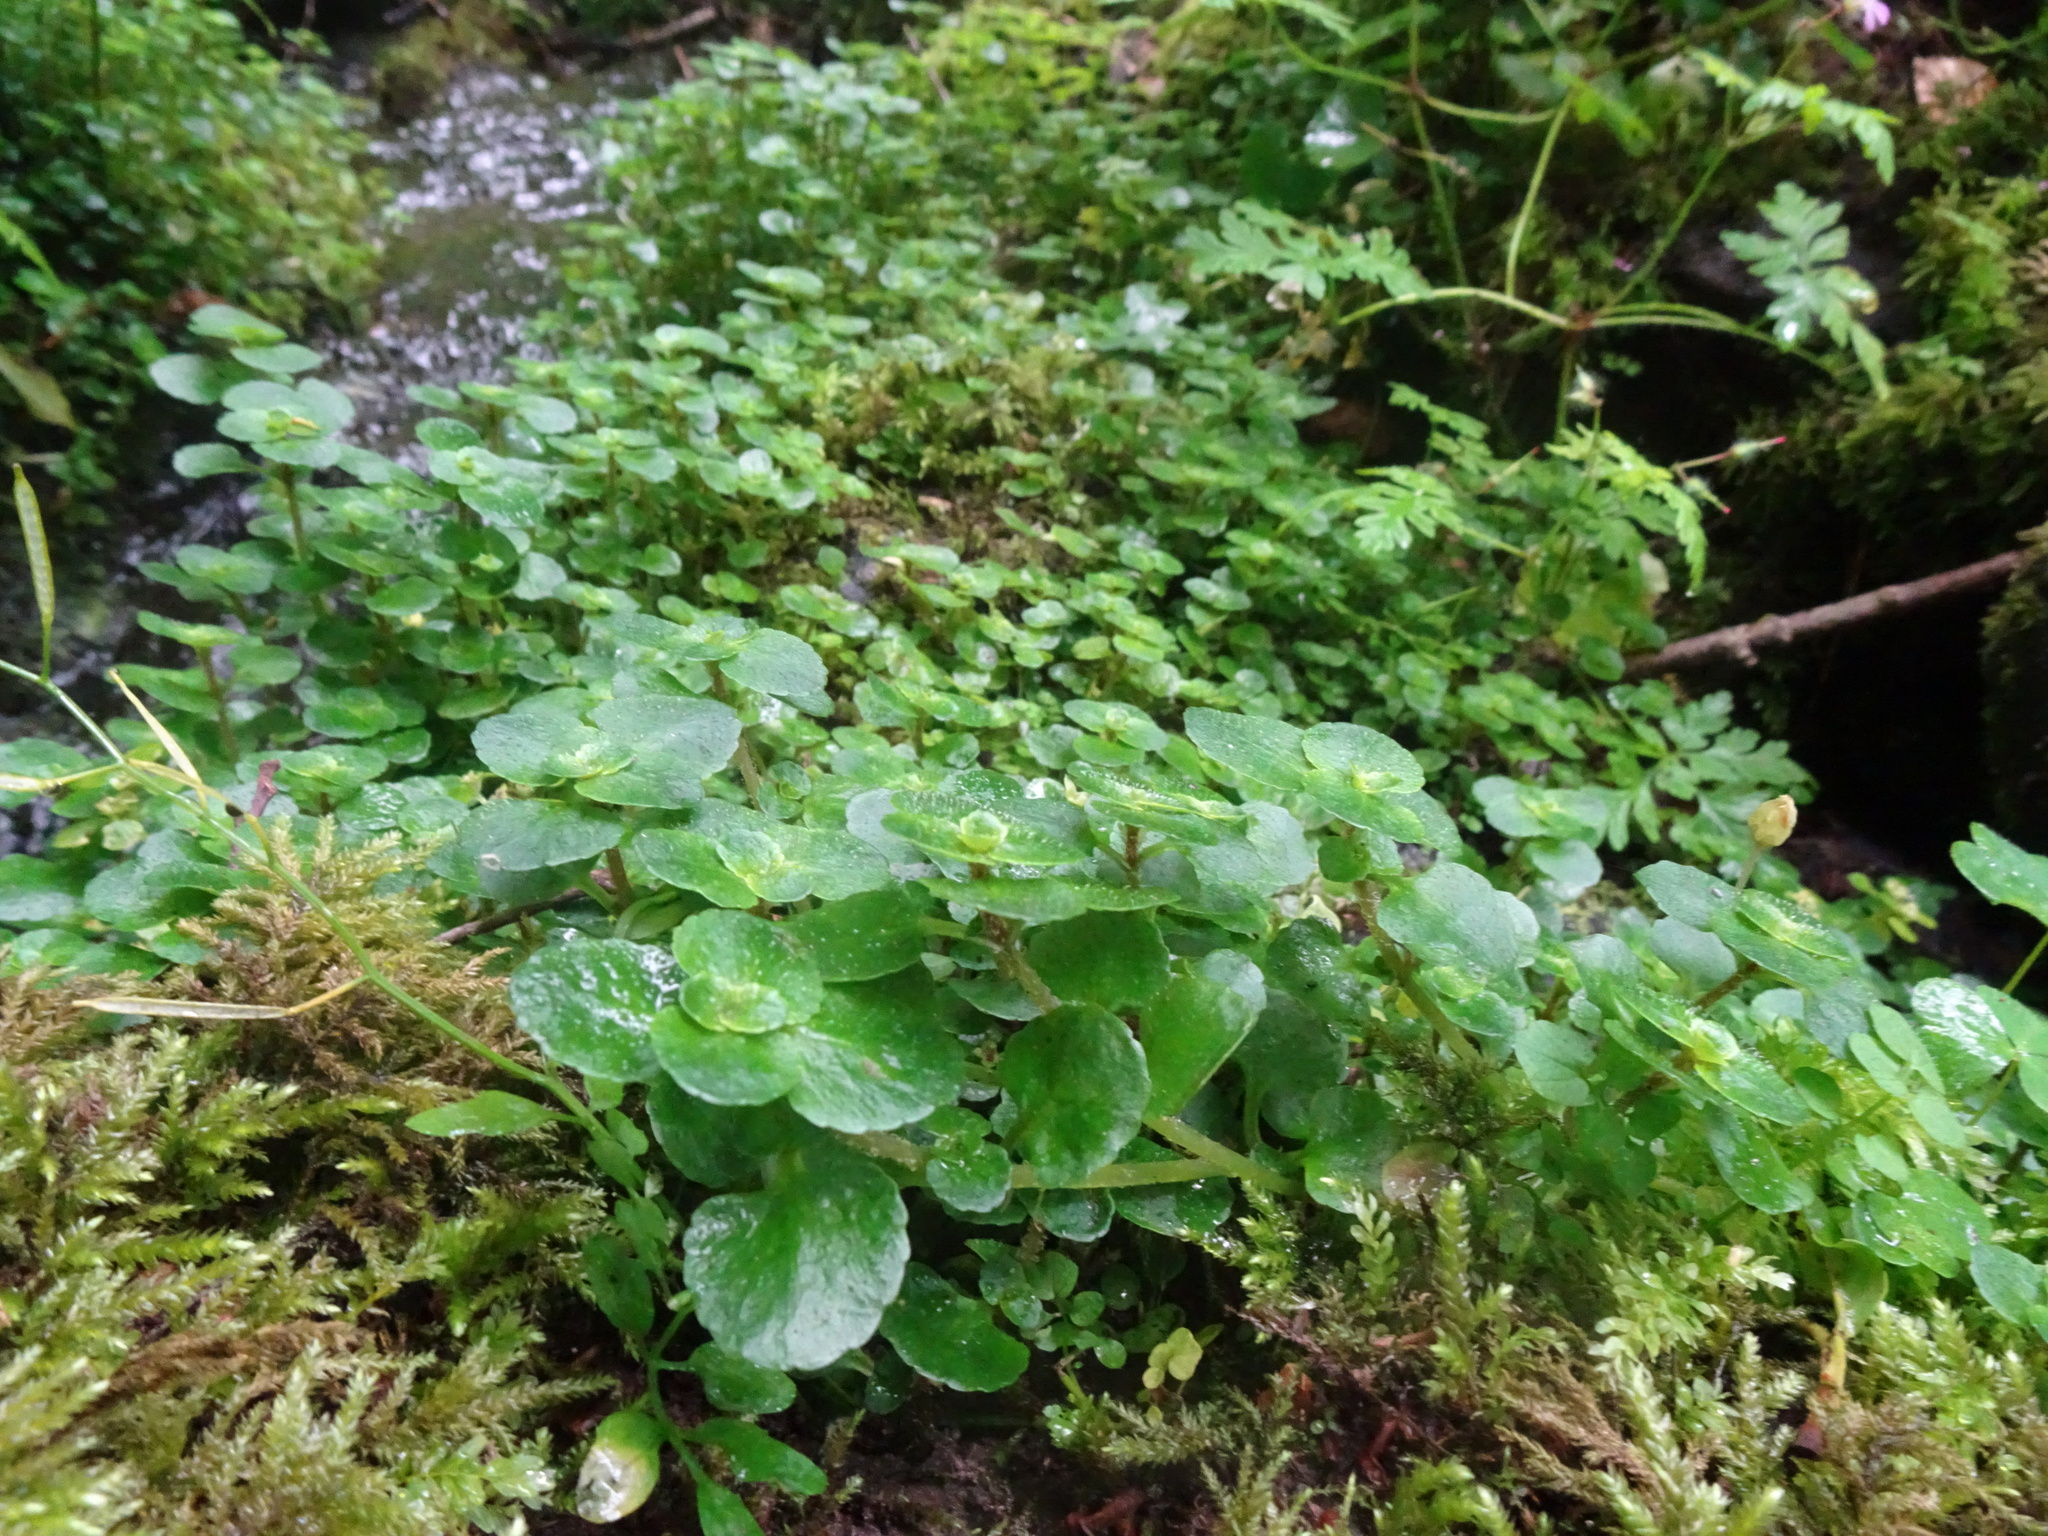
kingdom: Plantae
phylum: Tracheophyta
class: Magnoliopsida
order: Saxifragales
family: Saxifragaceae
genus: Chrysosplenium
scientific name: Chrysosplenium oppositifolium
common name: Opposite-leaved golden-saxifrage
